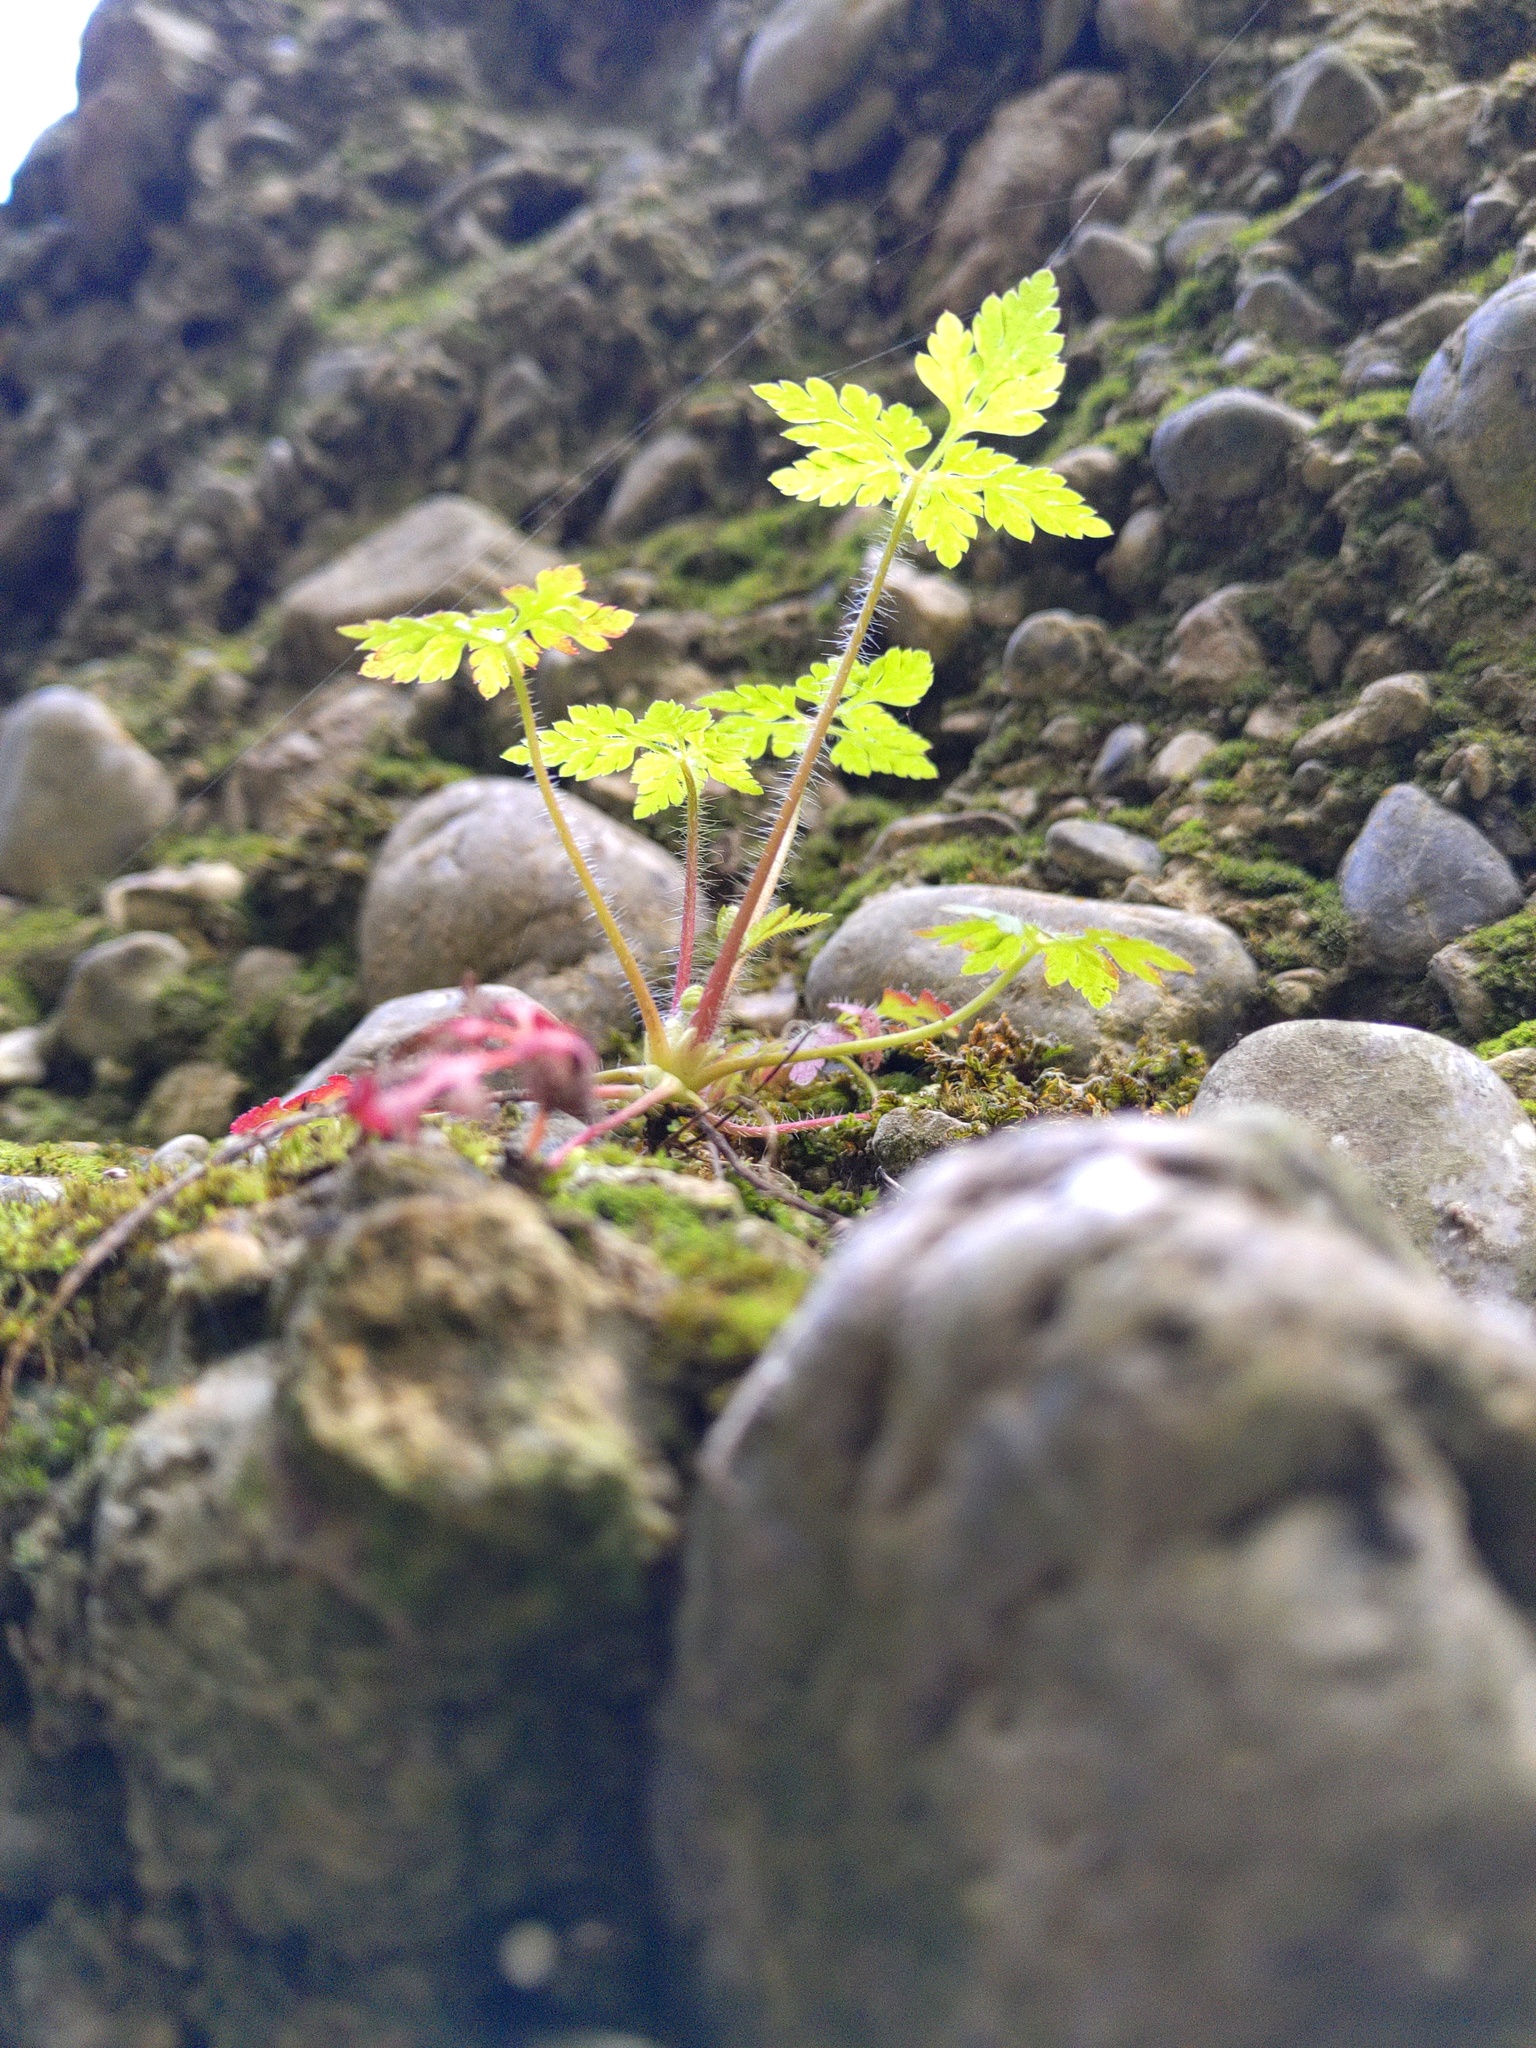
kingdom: Plantae
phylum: Tracheophyta
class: Magnoliopsida
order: Geraniales
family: Geraniaceae
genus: Geranium
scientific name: Geranium robertianum
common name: Herb-robert
